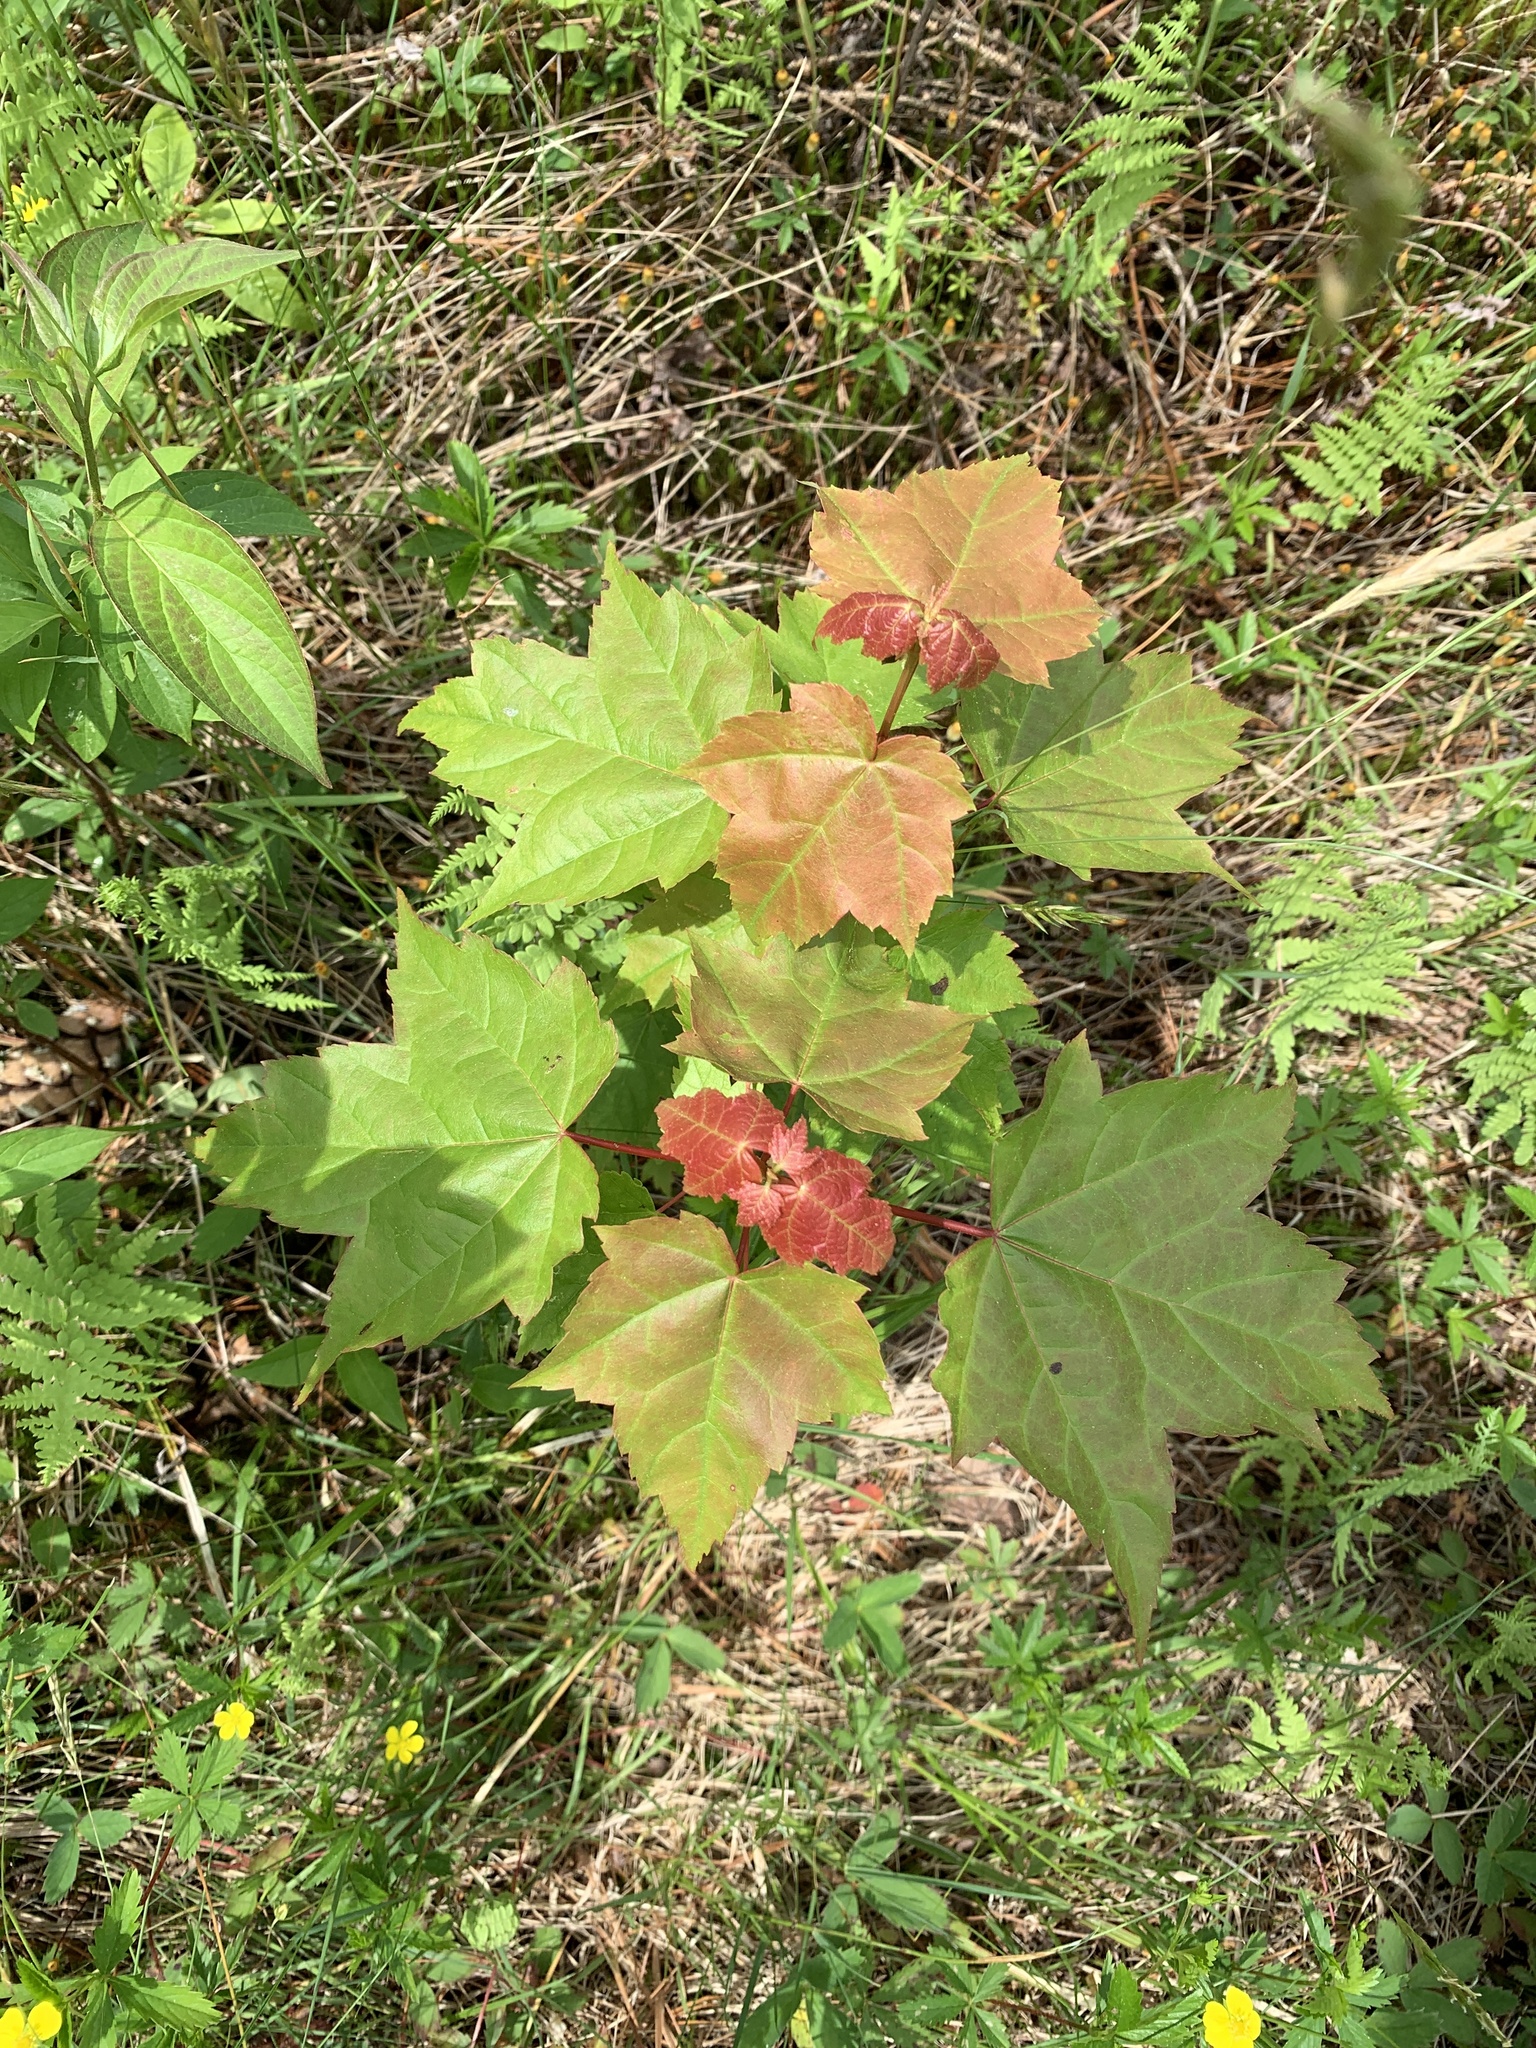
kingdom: Plantae
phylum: Tracheophyta
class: Magnoliopsida
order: Sapindales
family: Sapindaceae
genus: Acer
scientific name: Acer rubrum
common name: Red maple
